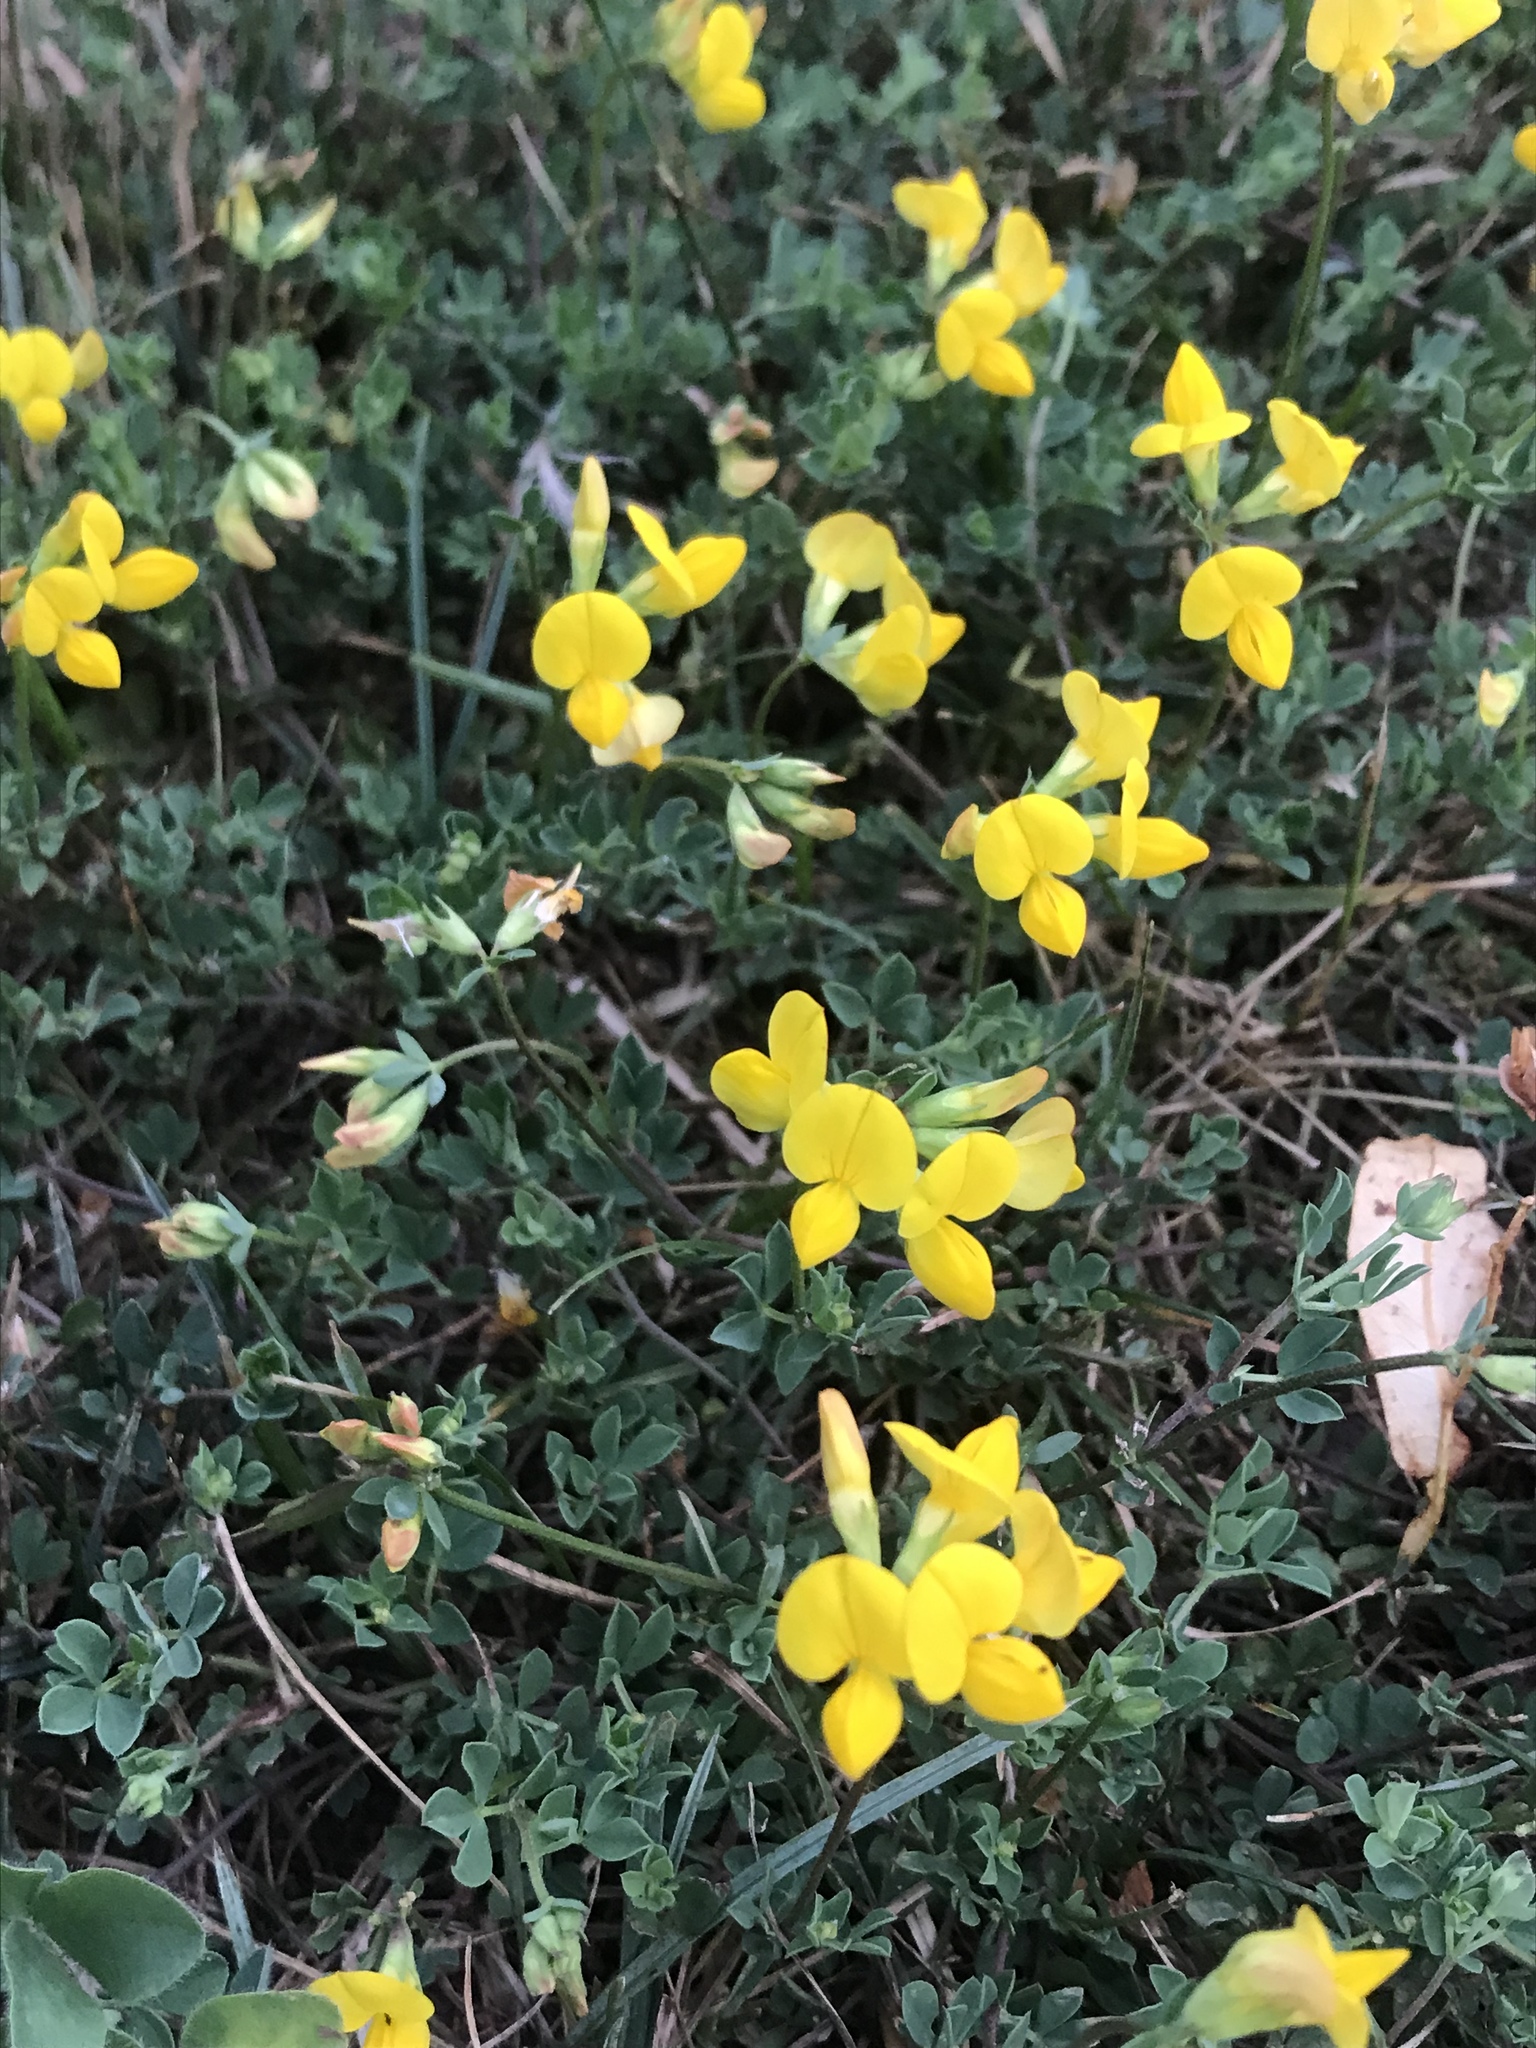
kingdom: Plantae
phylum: Tracheophyta
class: Magnoliopsida
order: Fabales
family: Fabaceae
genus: Lotus
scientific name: Lotus corniculatus
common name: Common bird's-foot-trefoil
